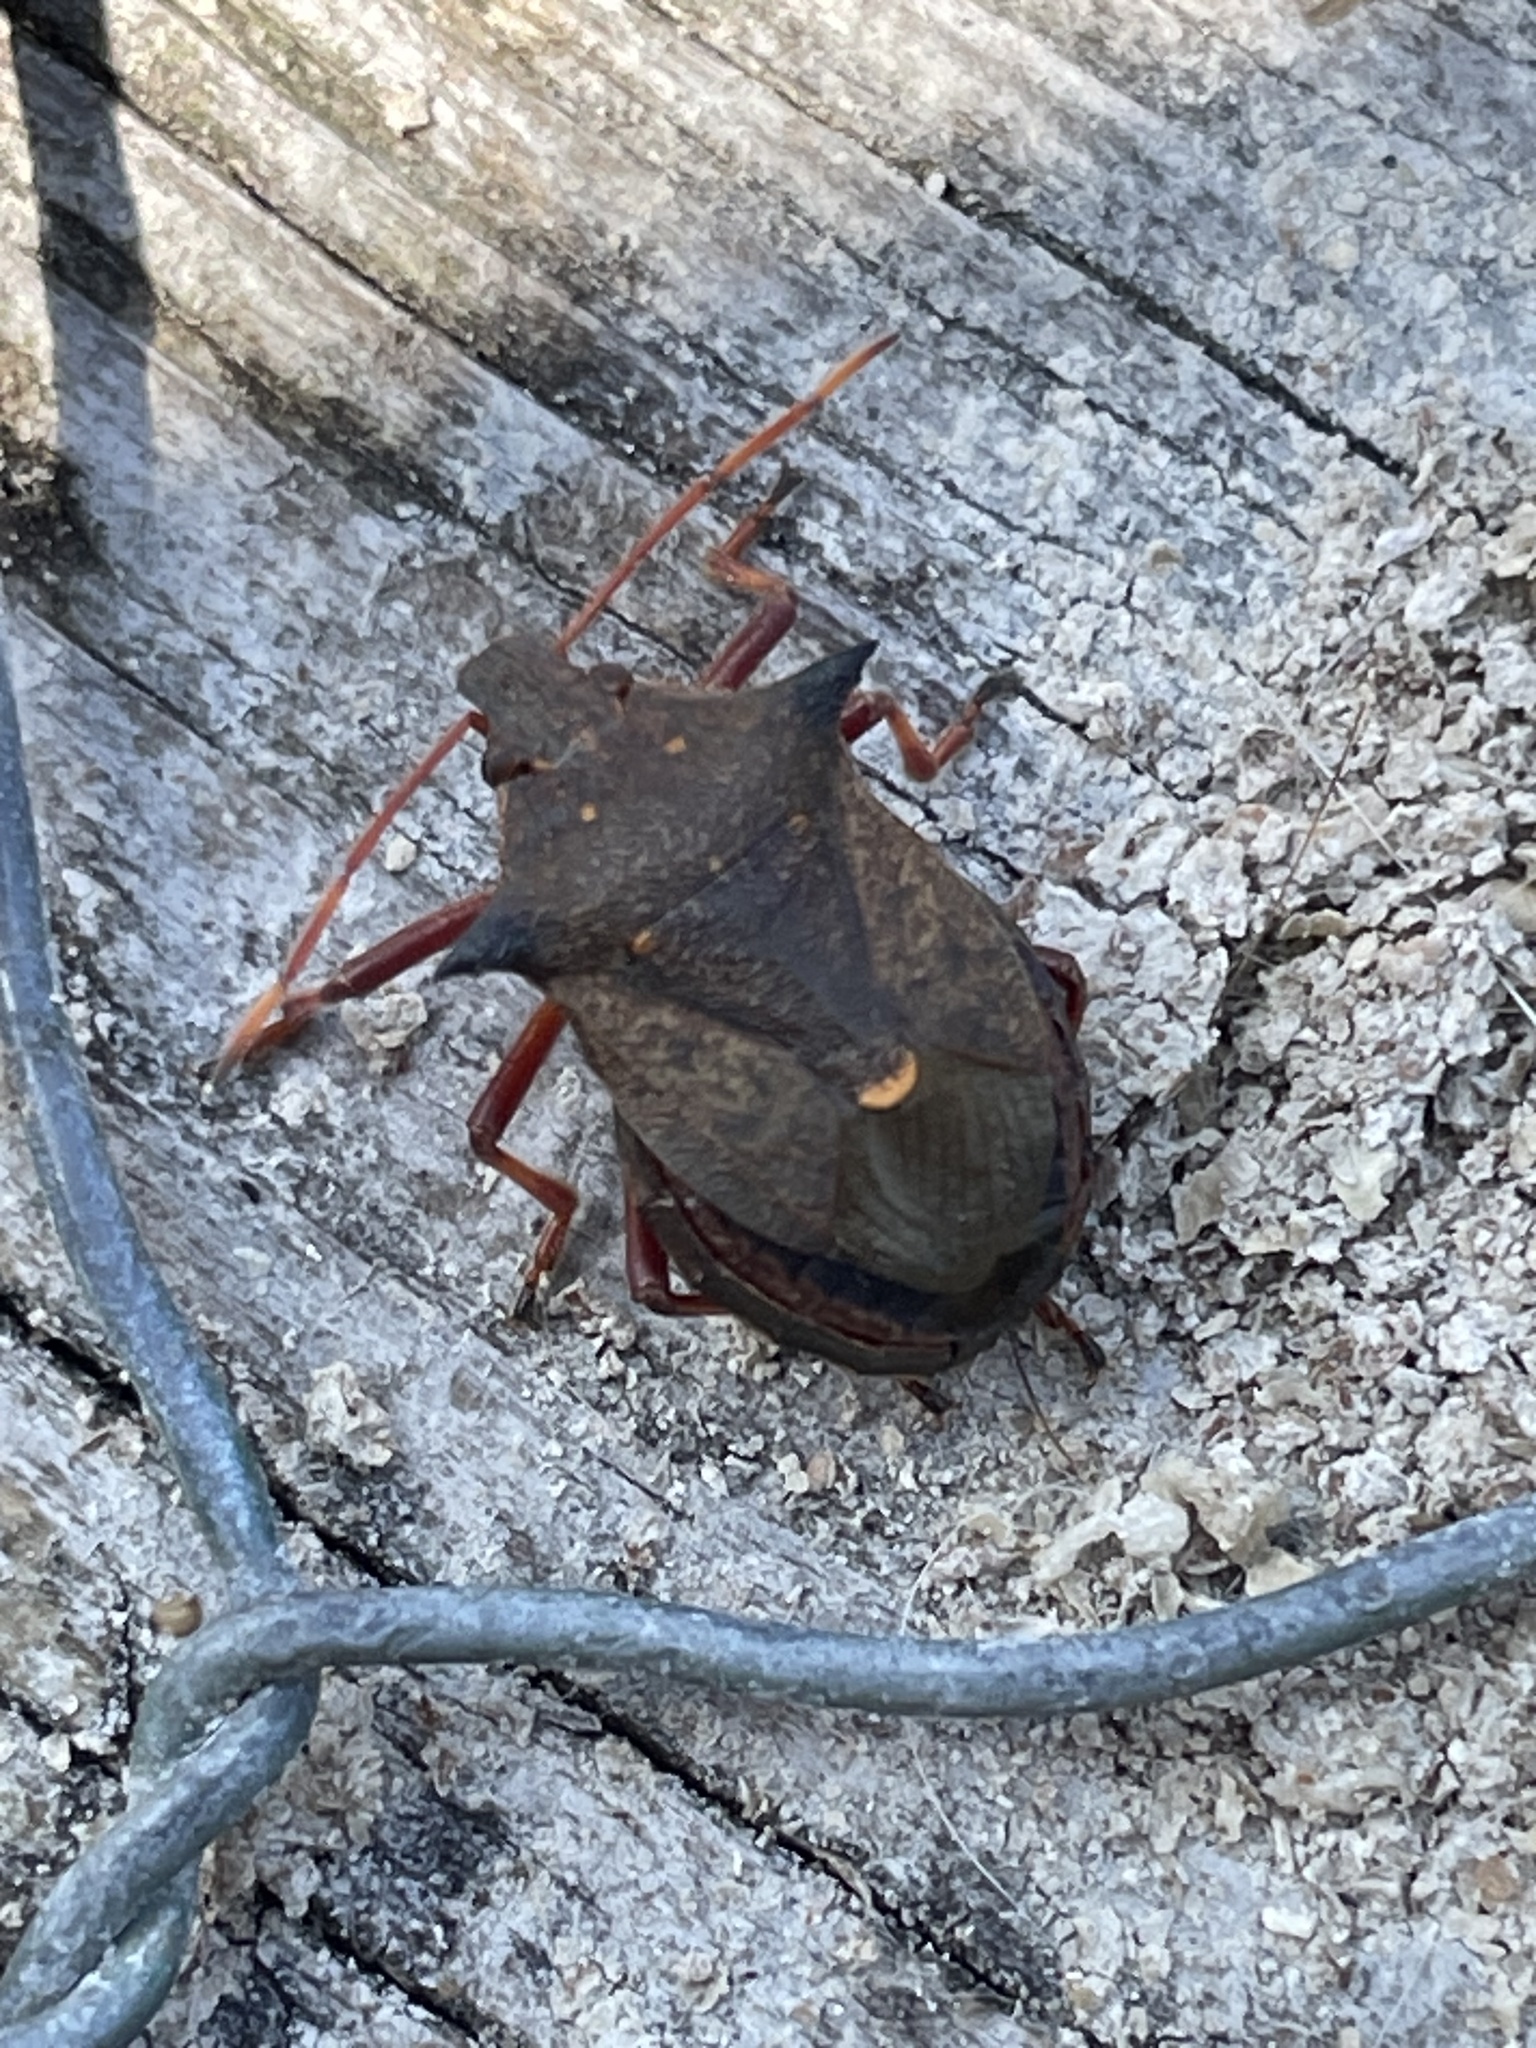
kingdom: Animalia
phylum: Arthropoda
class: Insecta
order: Hemiptera
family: Pentatomidae
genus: Picromerus
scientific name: Picromerus bidens
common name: Spiked shieldbug
